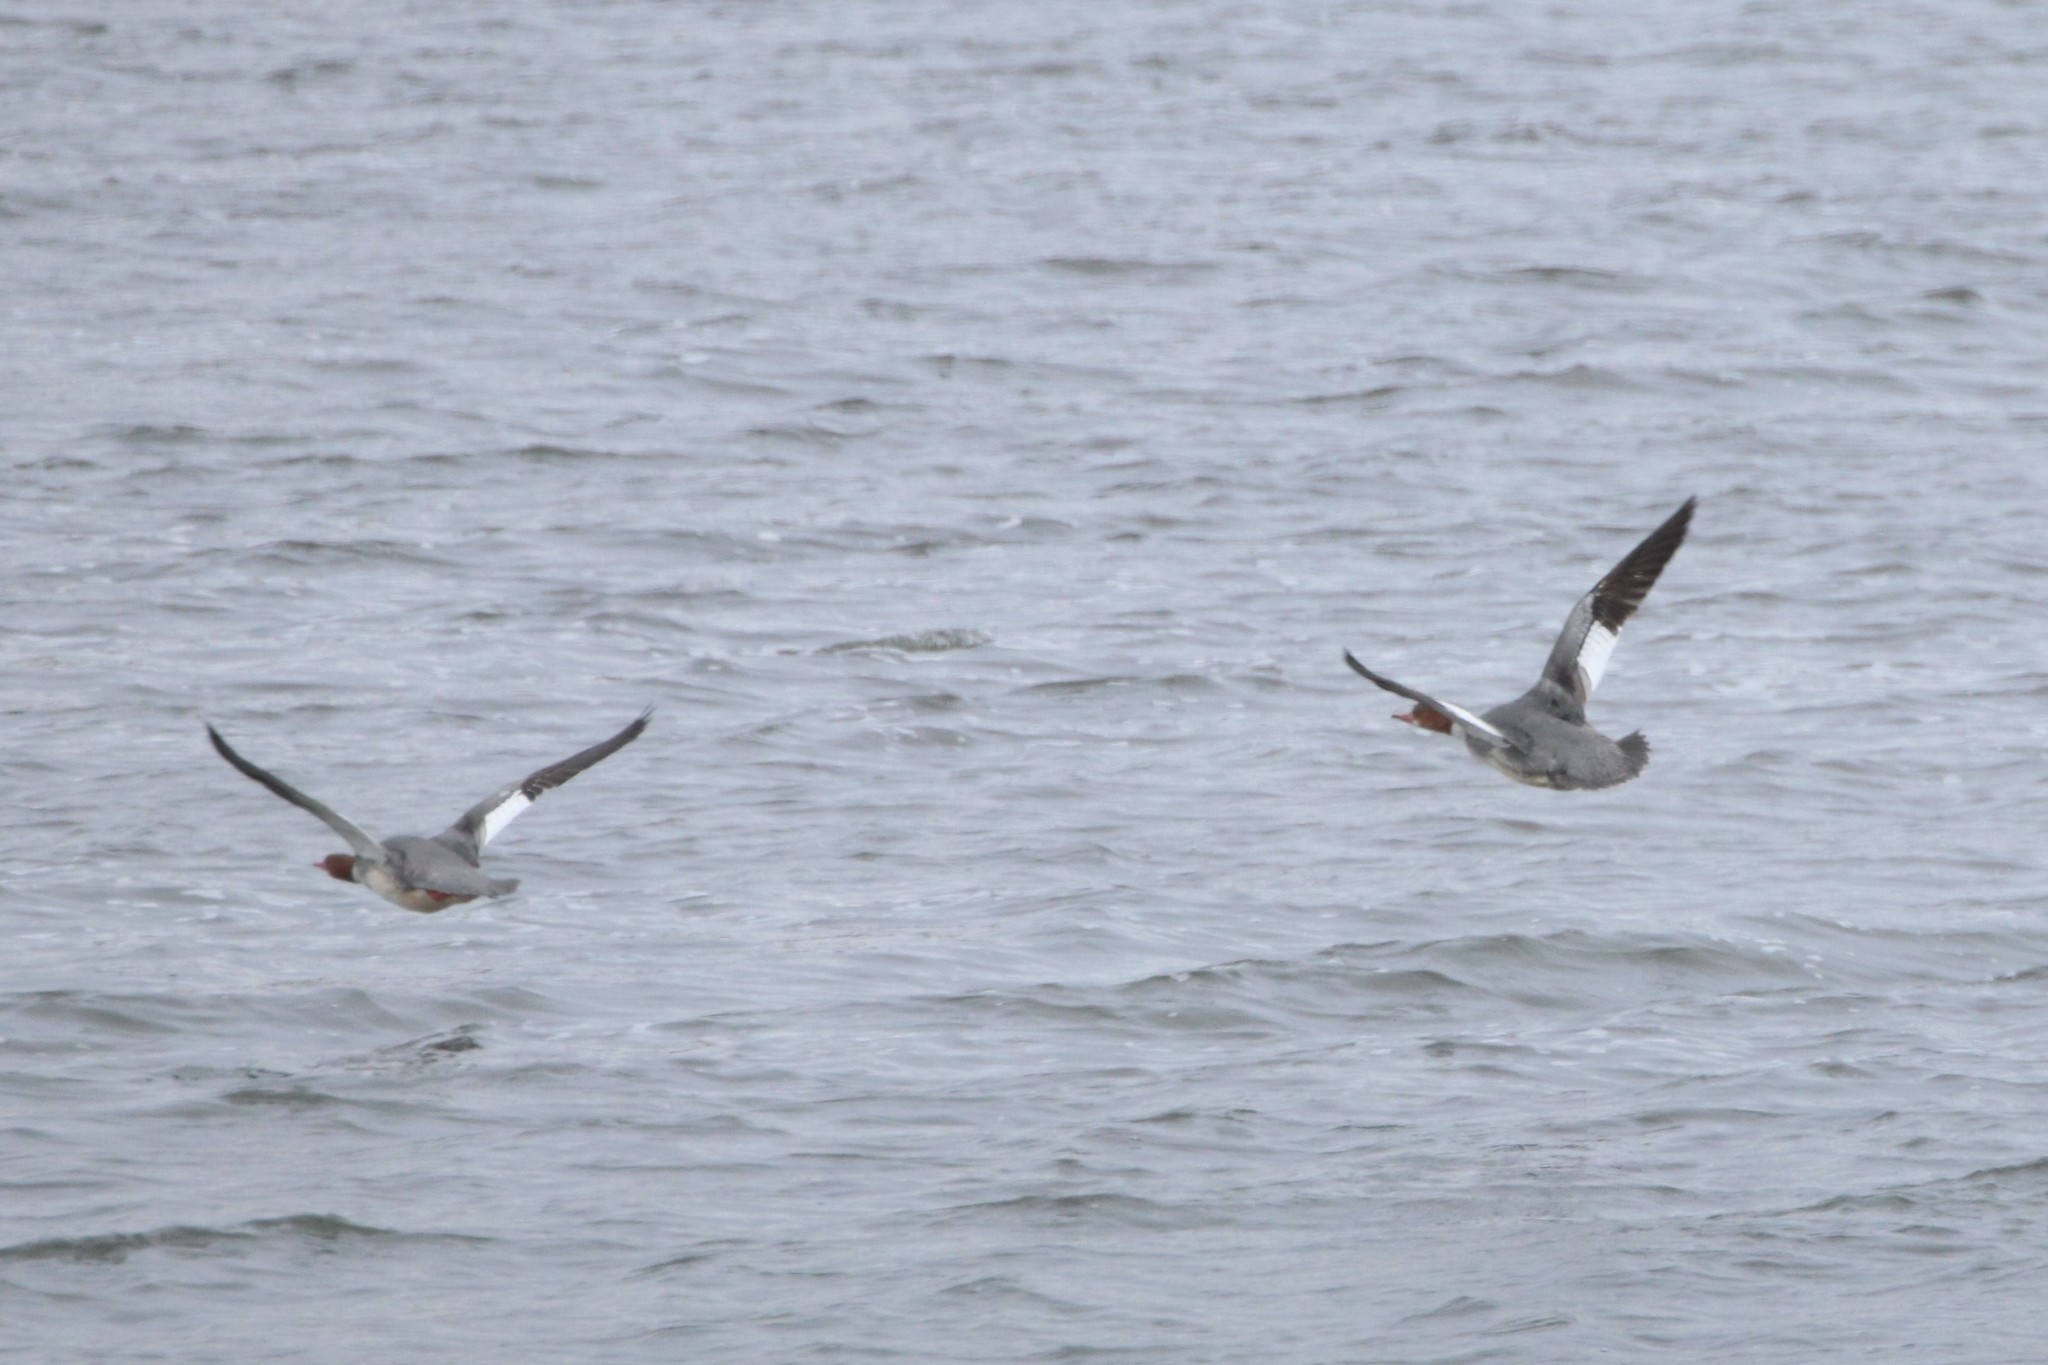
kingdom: Animalia
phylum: Chordata
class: Aves
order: Anseriformes
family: Anatidae
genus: Mergus
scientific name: Mergus merganser
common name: Common merganser
